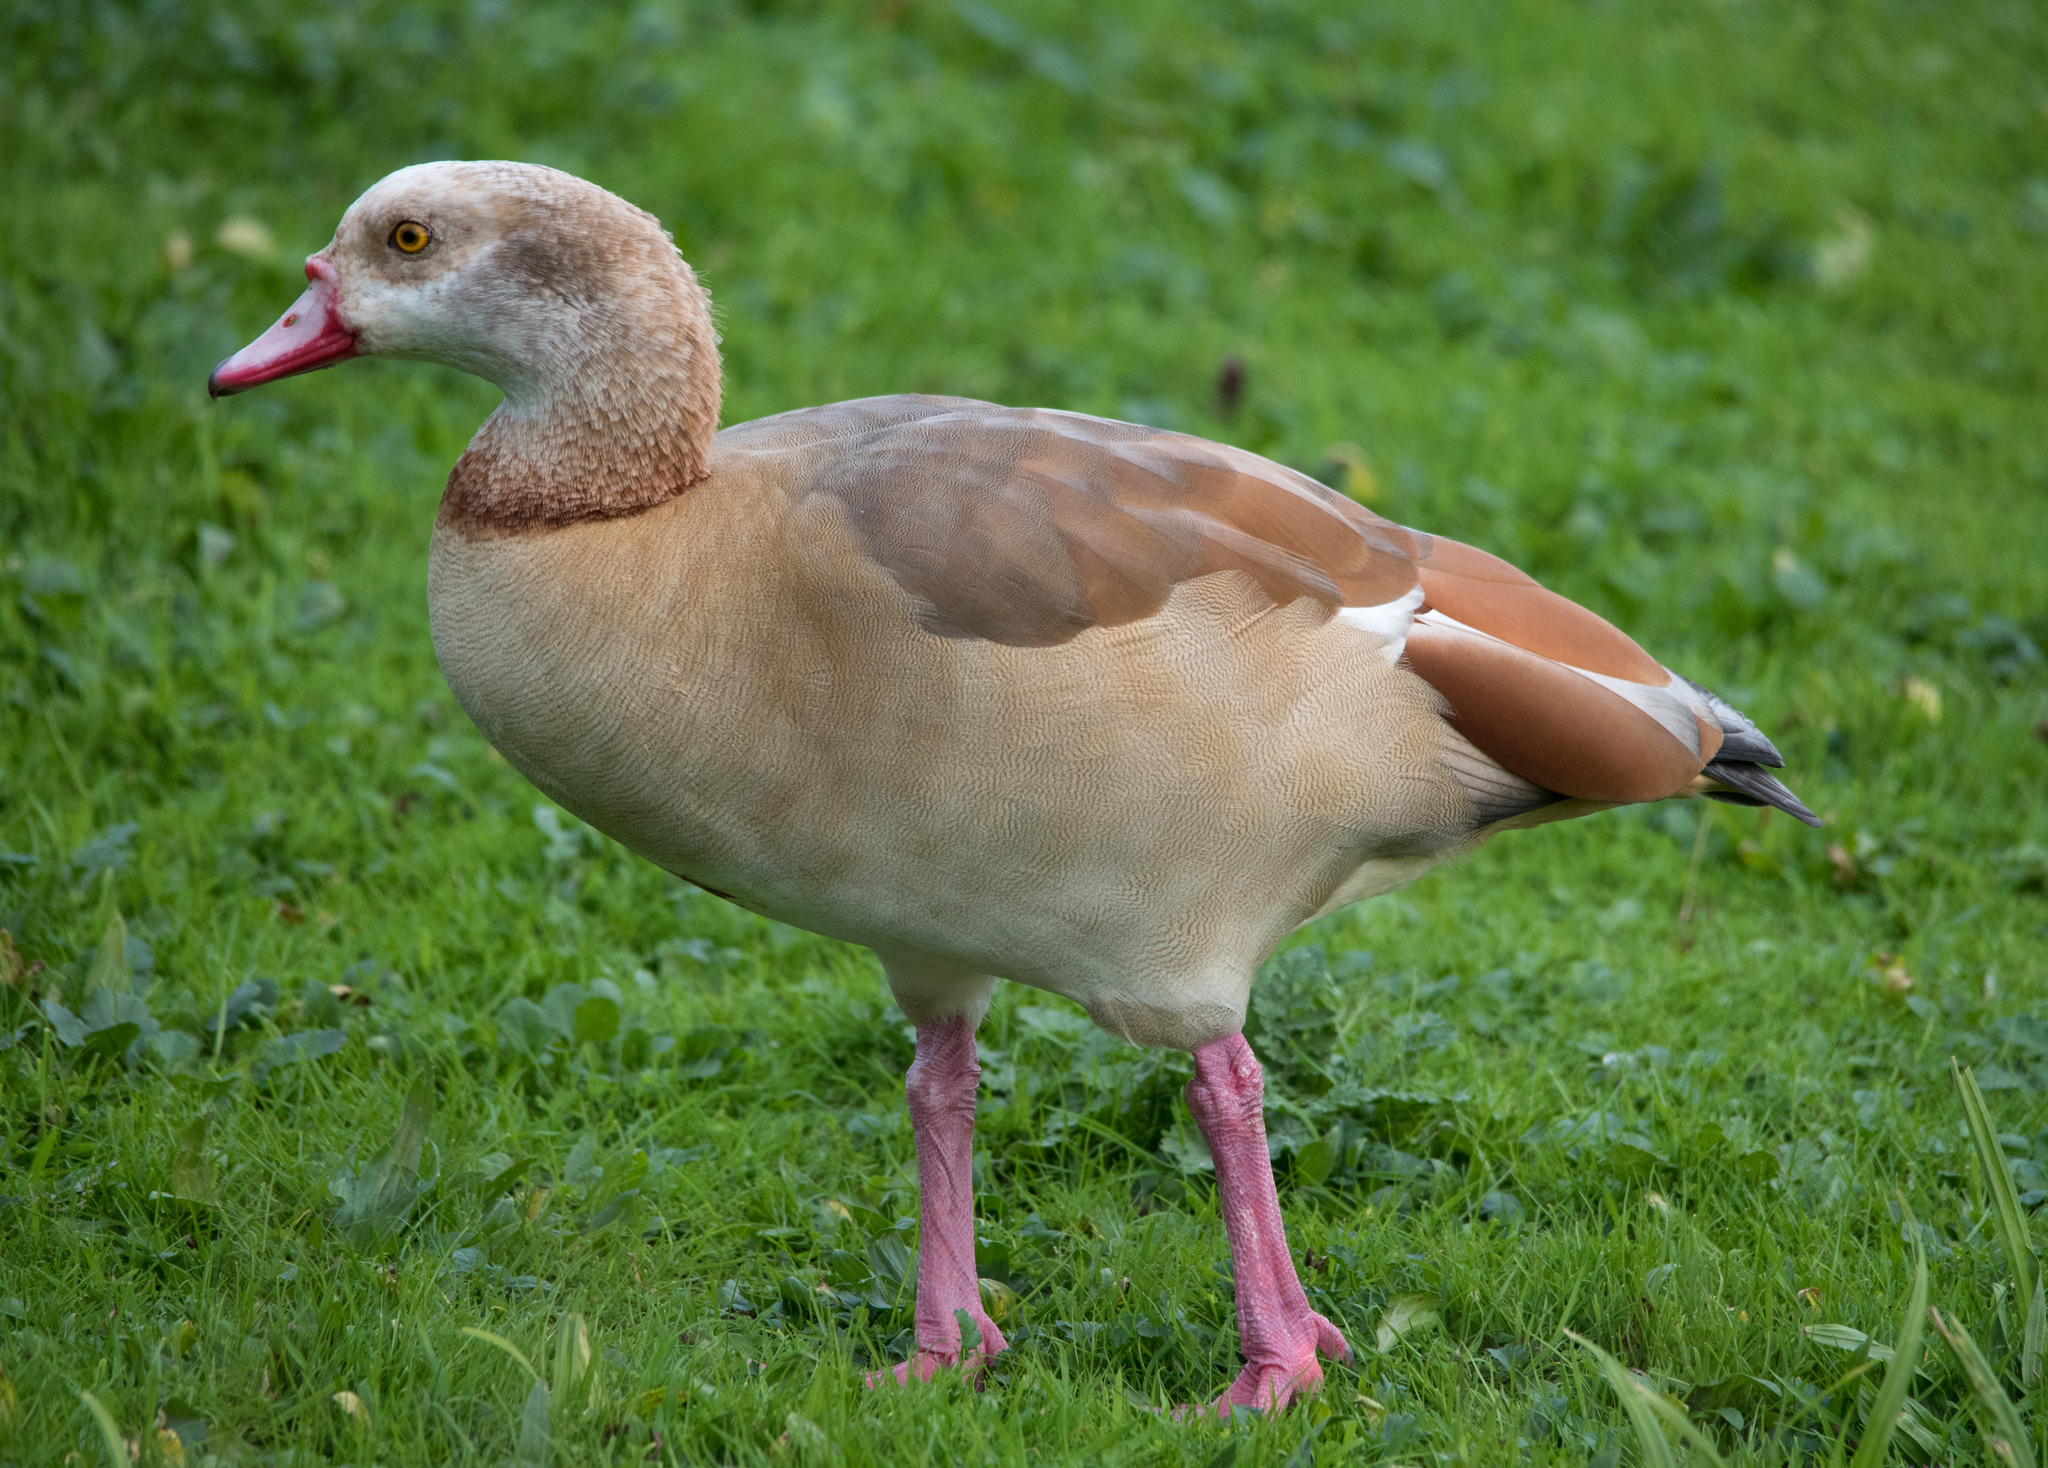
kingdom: Animalia
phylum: Chordata
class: Aves
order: Anseriformes
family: Anatidae
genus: Alopochen
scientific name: Alopochen aegyptiaca
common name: Egyptian goose
